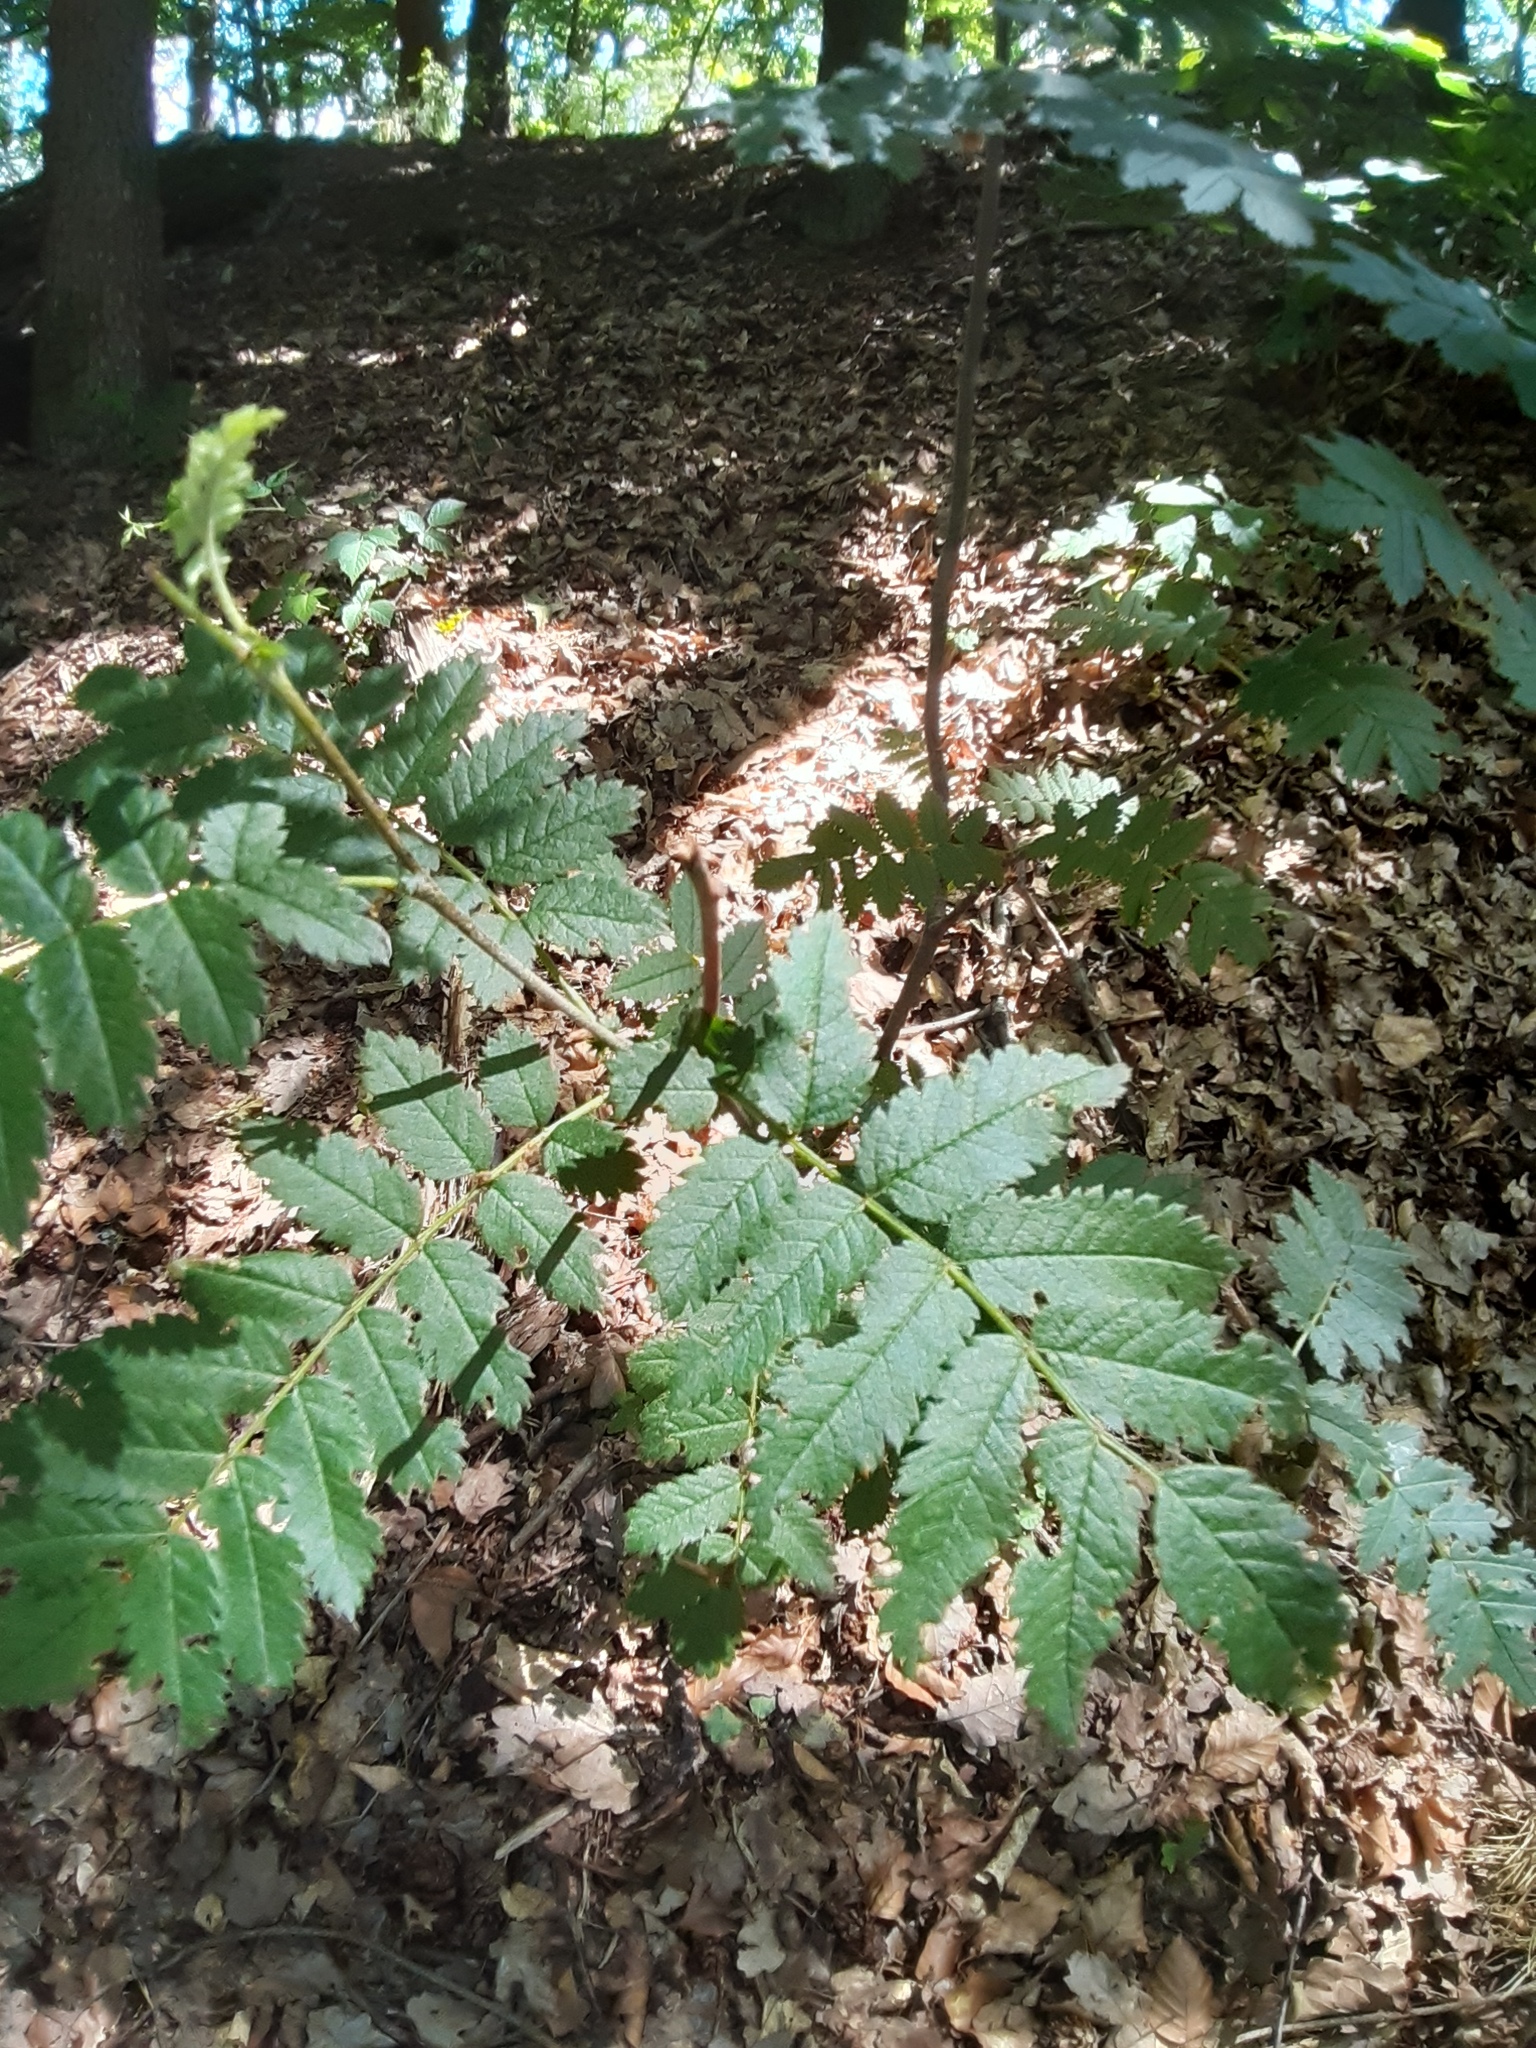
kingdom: Plantae
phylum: Tracheophyta
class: Magnoliopsida
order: Rosales
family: Rosaceae
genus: Sorbus
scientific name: Sorbus aucuparia
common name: Rowan
